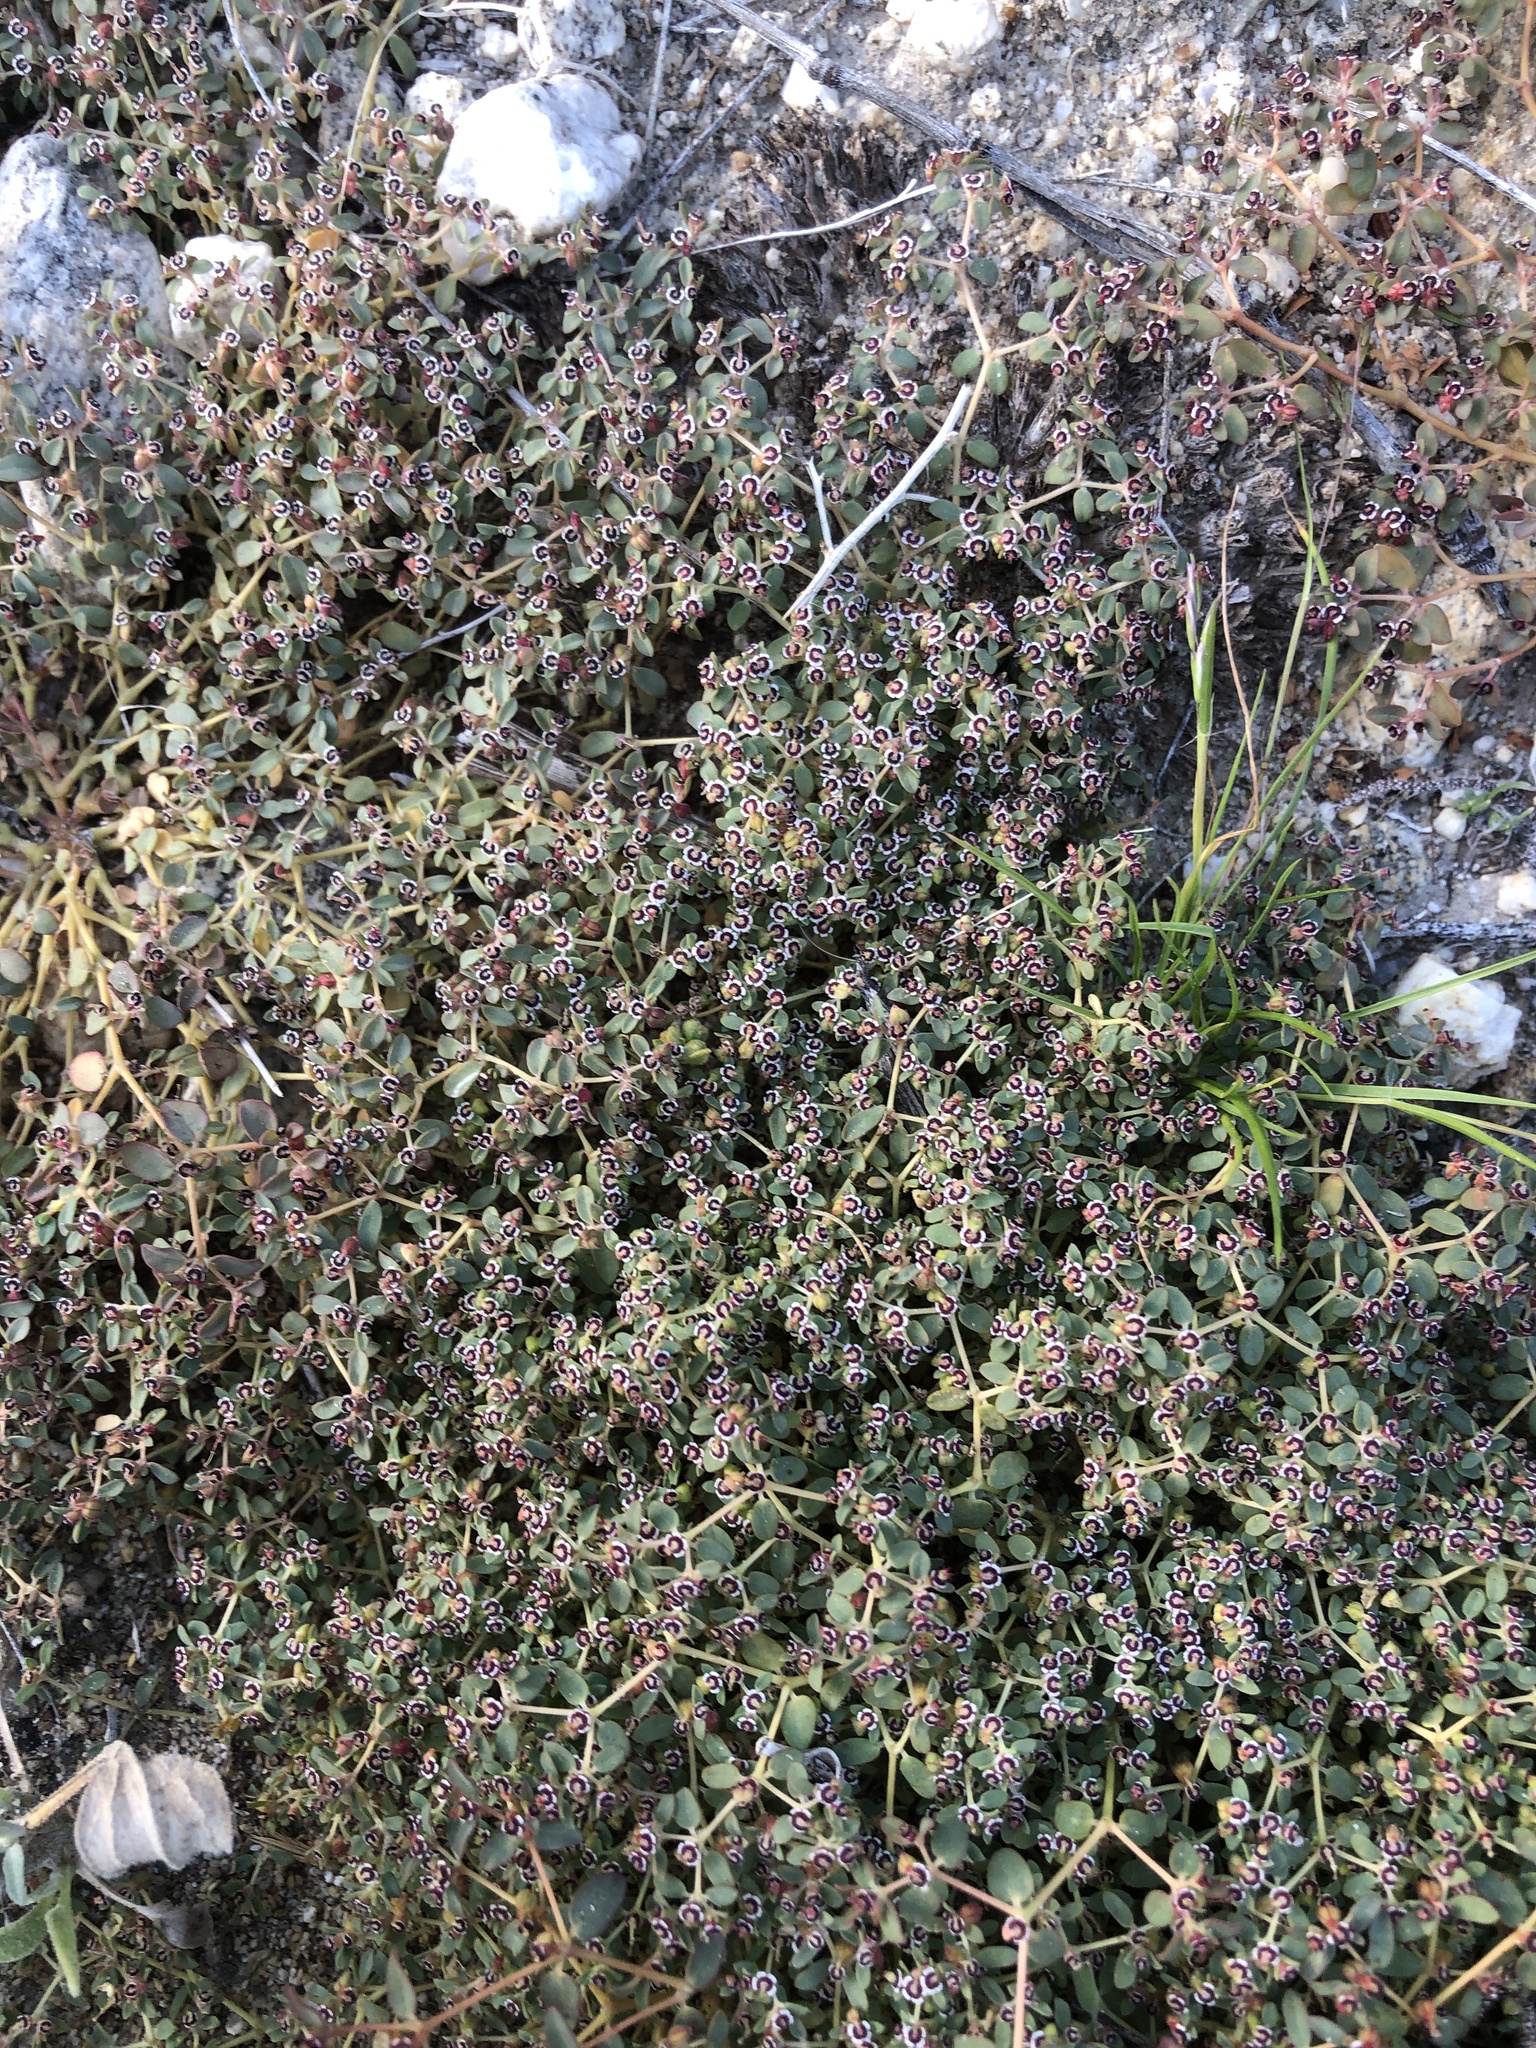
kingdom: Plantae
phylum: Tracheophyta
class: Magnoliopsida
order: Malpighiales
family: Euphorbiaceae
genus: Euphorbia
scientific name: Euphorbia polycarpa
